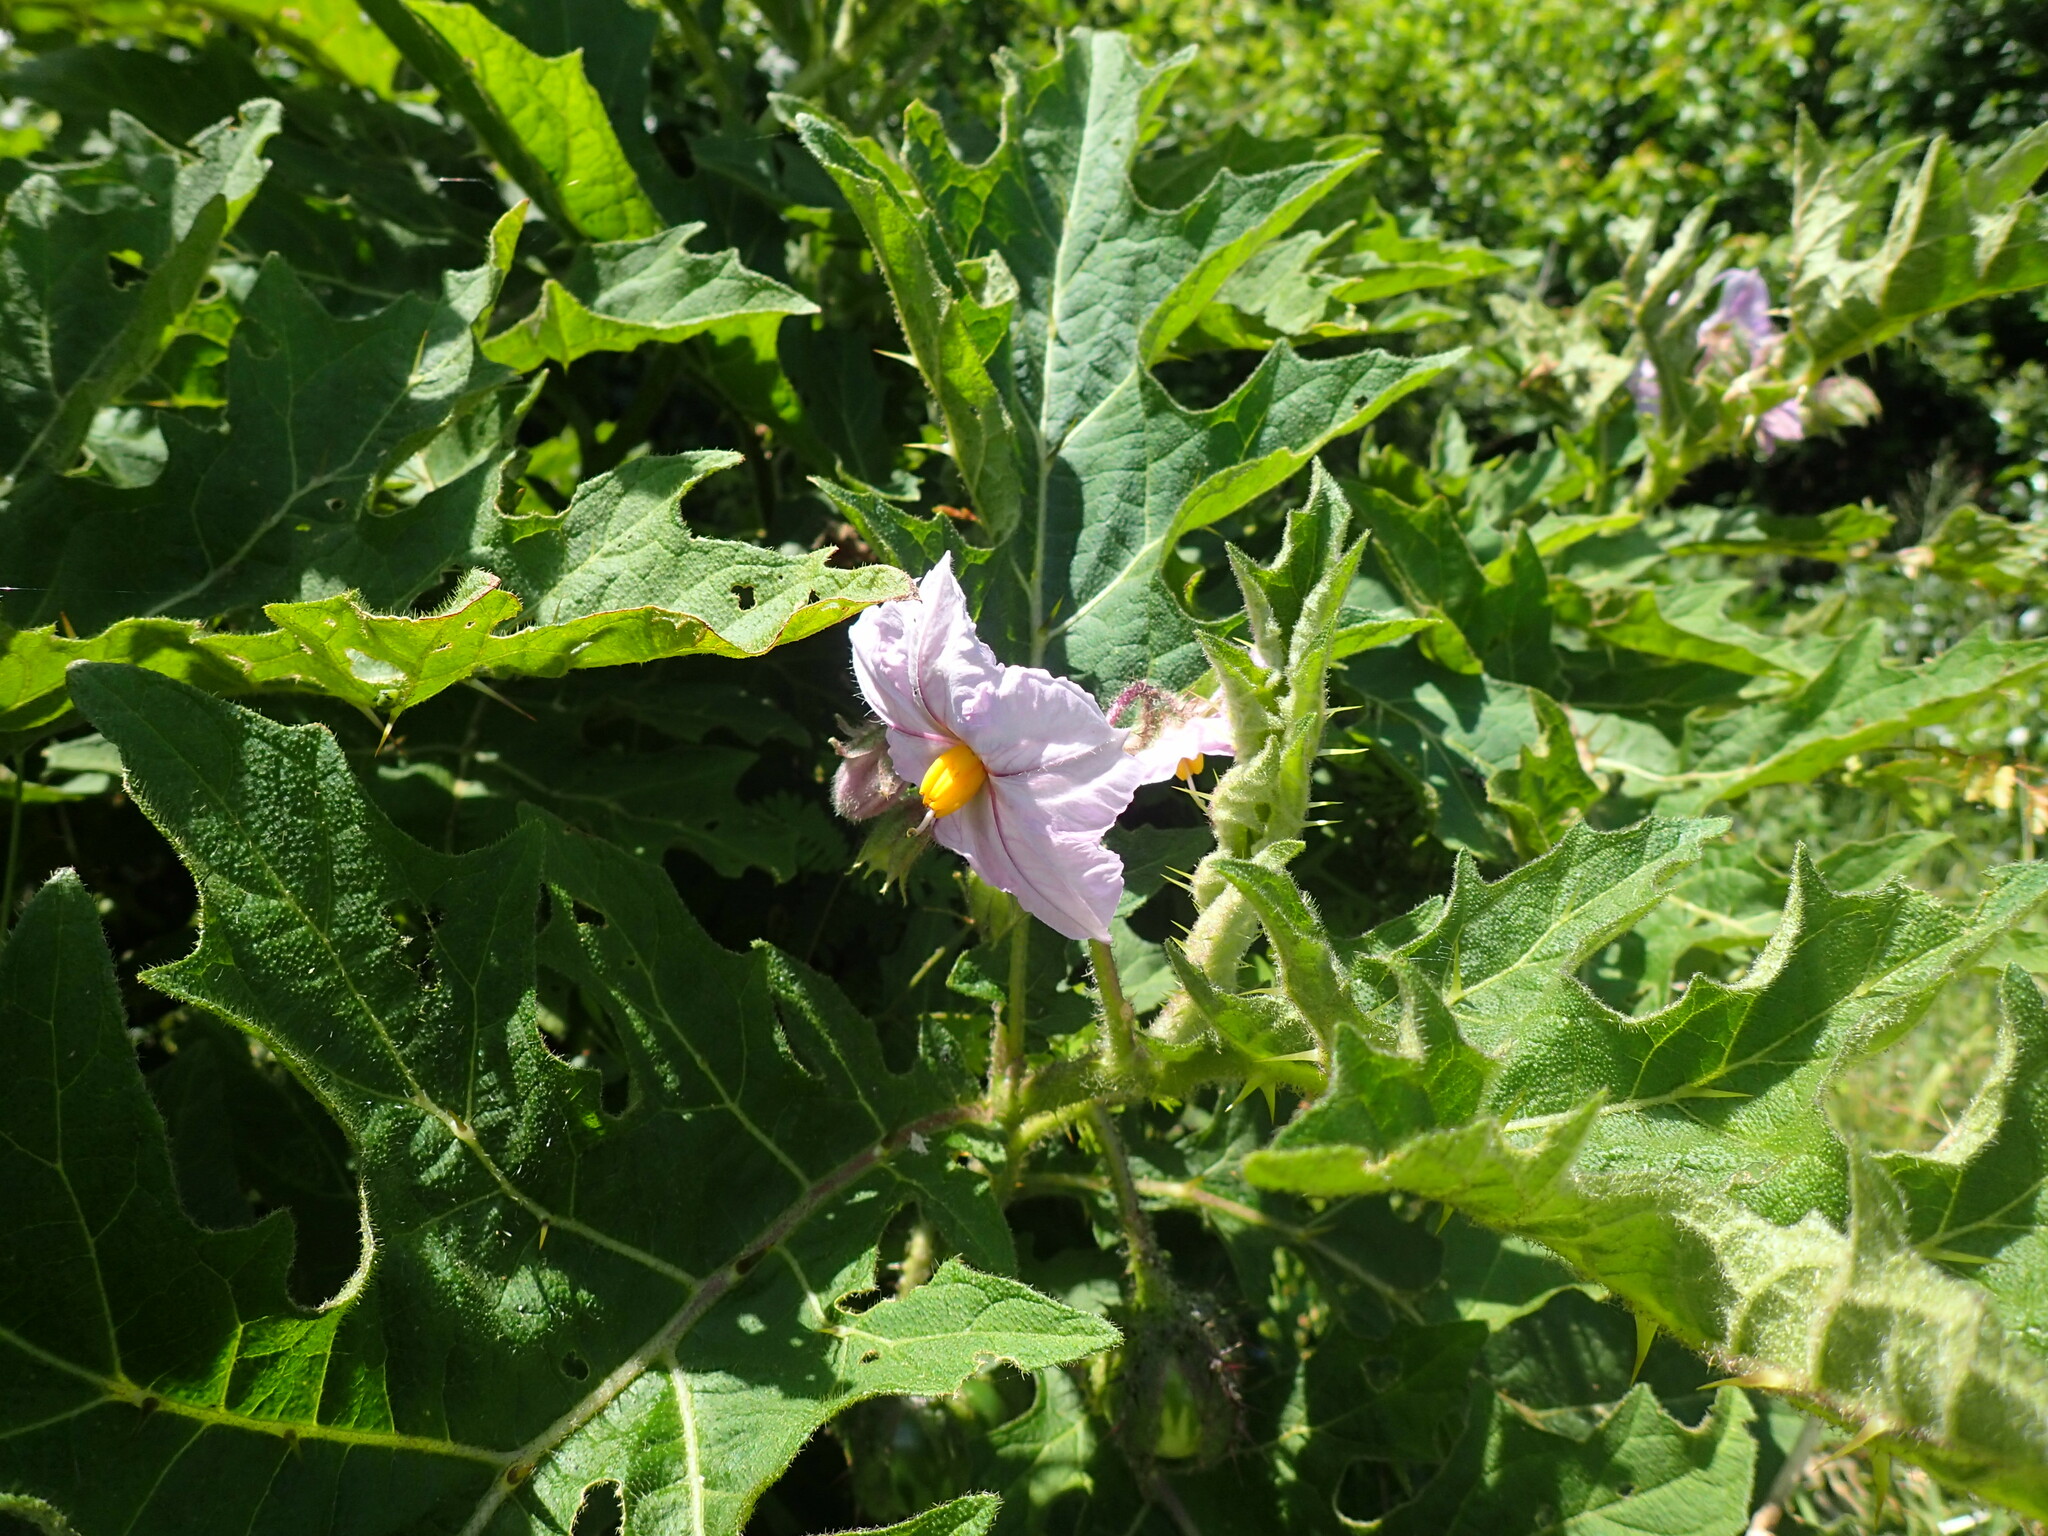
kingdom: Plantae
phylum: Tracheophyta
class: Magnoliopsida
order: Solanales
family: Solanaceae
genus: Solanum
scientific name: Solanum dasyphyllum
